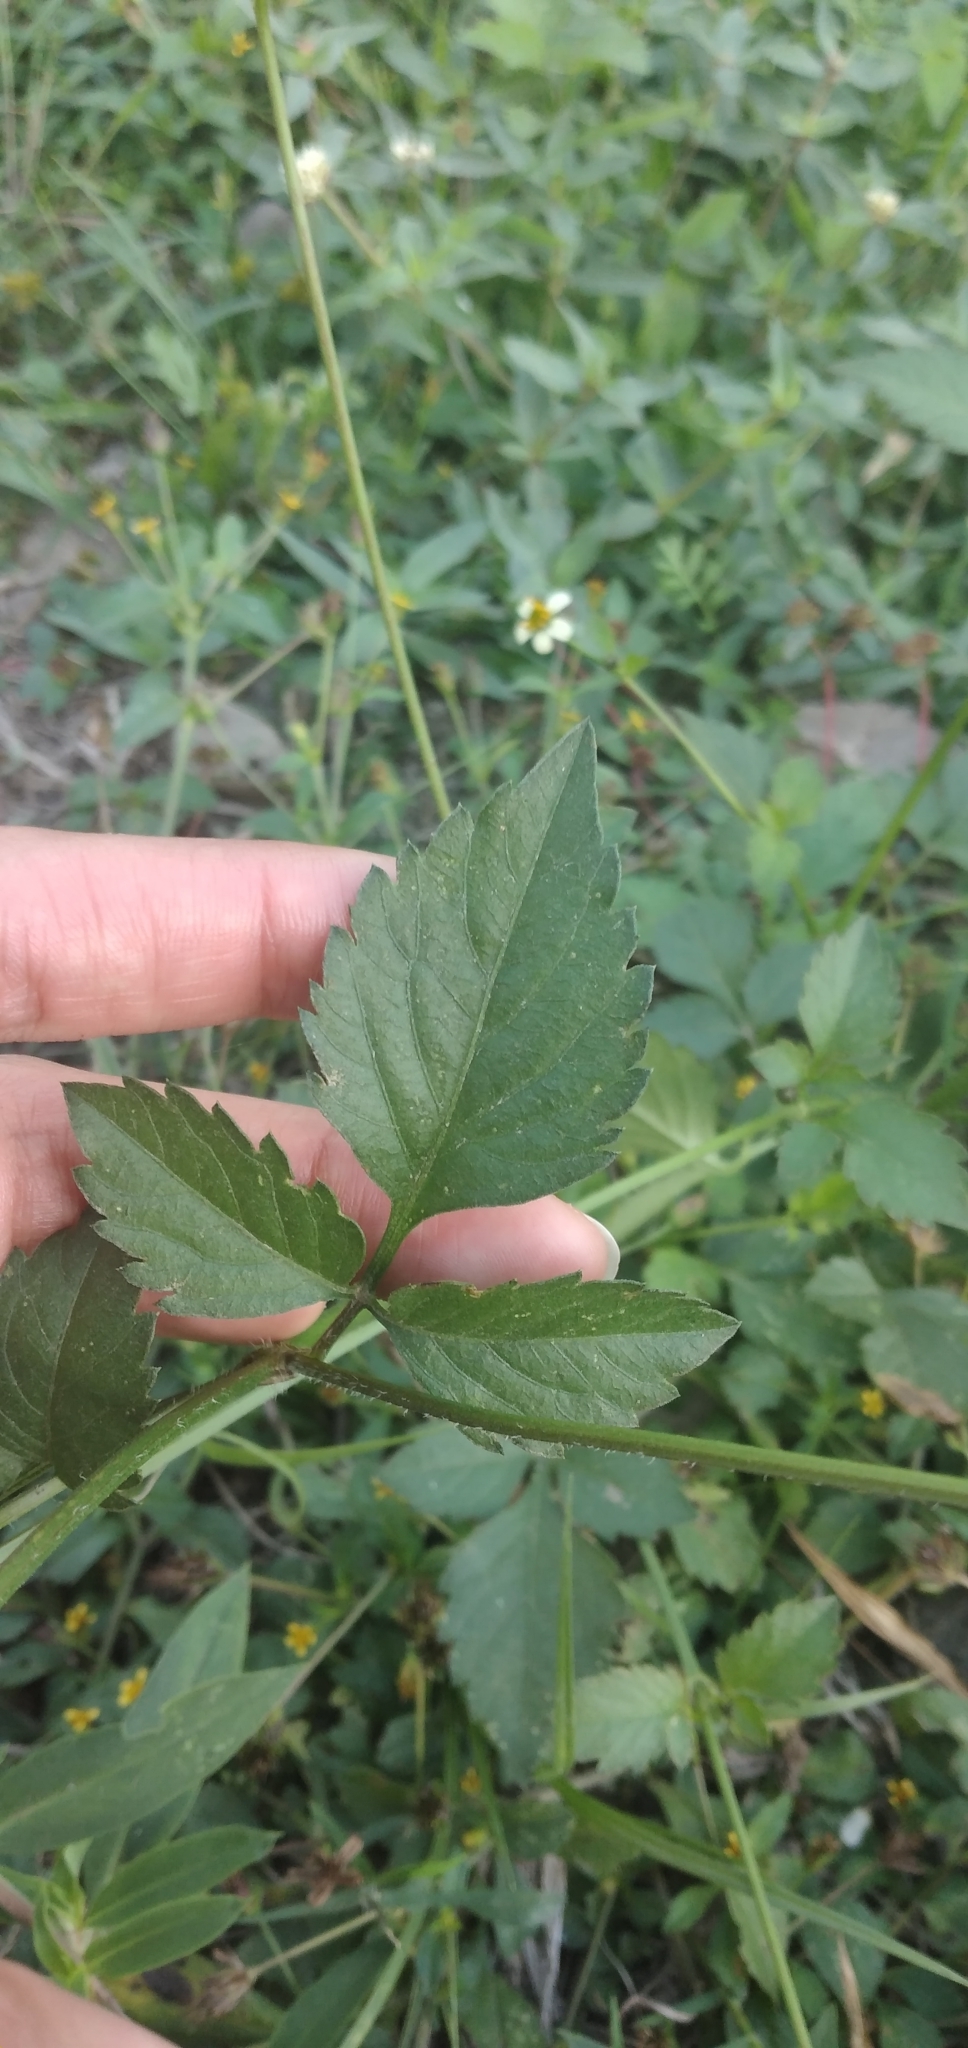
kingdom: Plantae
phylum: Tracheophyta
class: Magnoliopsida
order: Asterales
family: Asteraceae
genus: Bidens
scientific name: Bidens pilosa
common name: Black-jack
